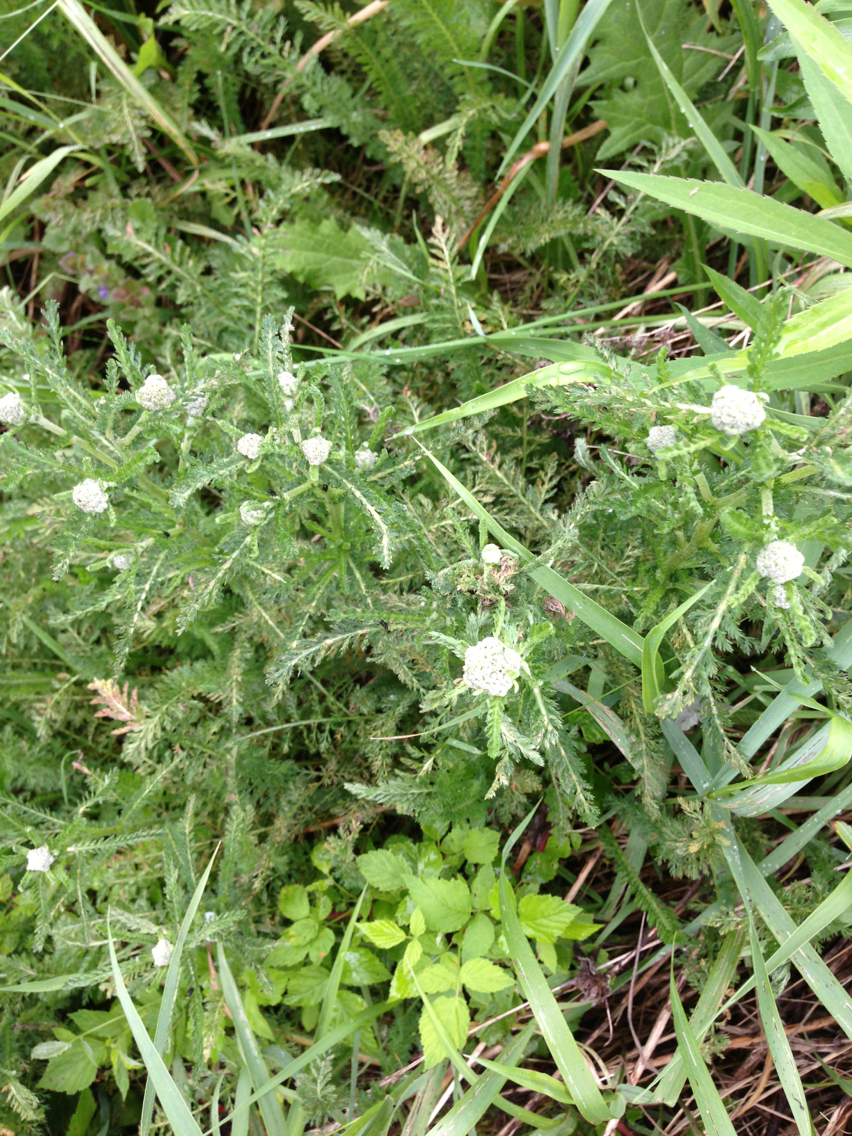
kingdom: Plantae
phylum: Tracheophyta
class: Magnoliopsida
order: Asterales
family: Asteraceae
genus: Achillea
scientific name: Achillea millefolium
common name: Yarrow
